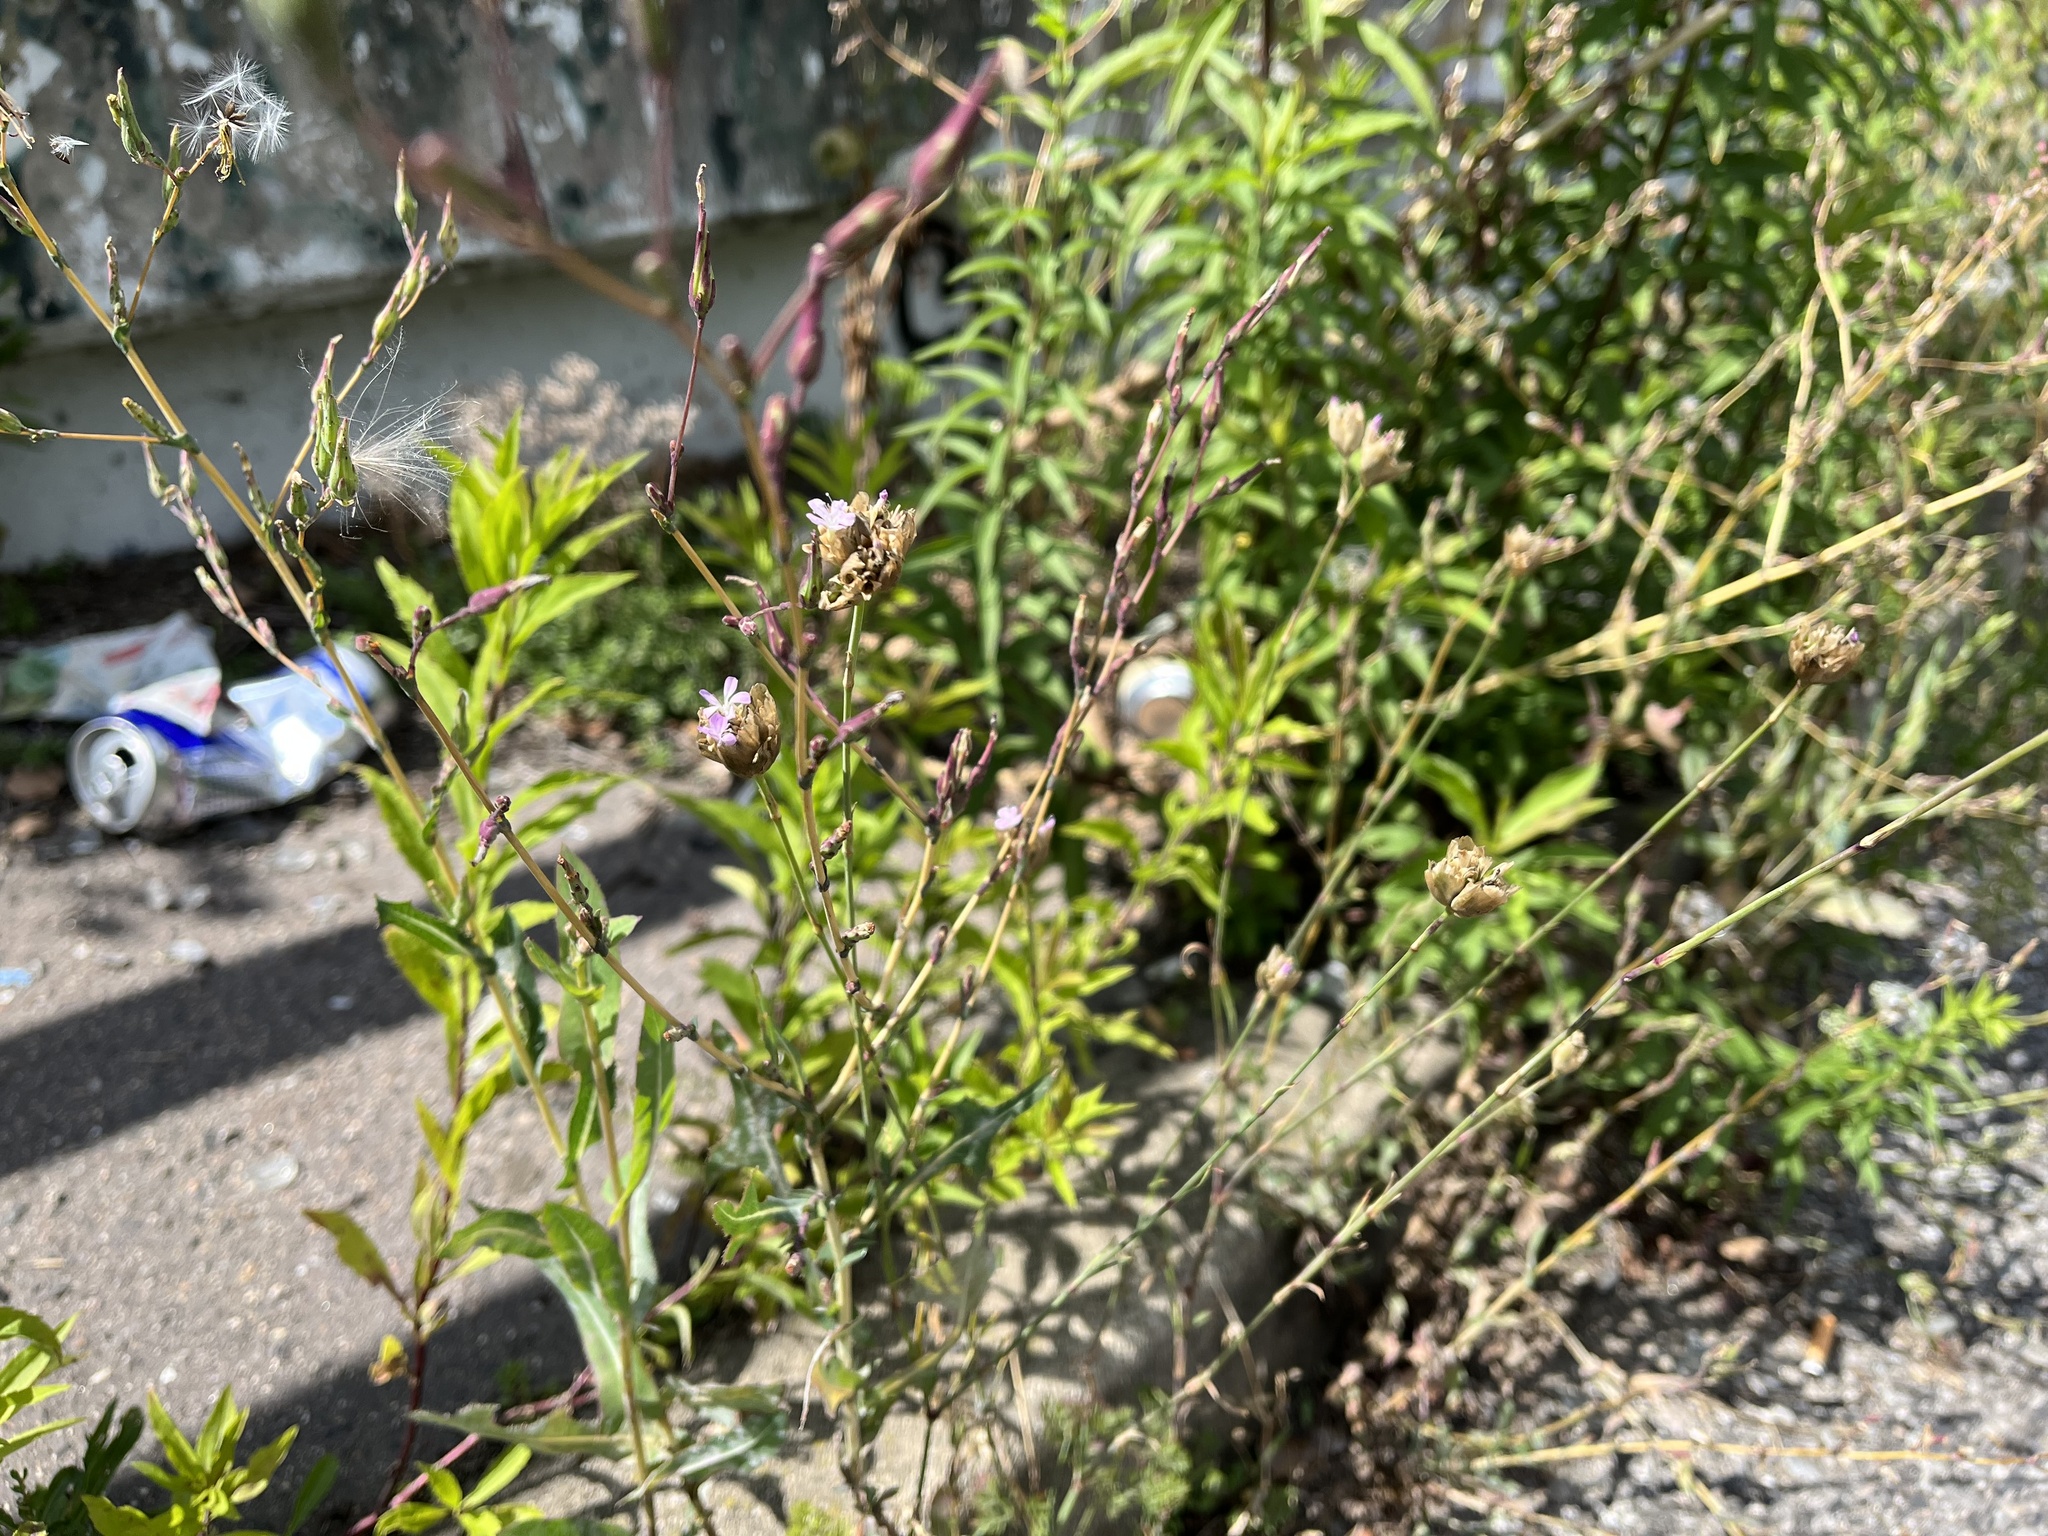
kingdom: Plantae
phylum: Tracheophyta
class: Magnoliopsida
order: Caryophyllales
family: Caryophyllaceae
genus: Petrorhagia
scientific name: Petrorhagia prolifera
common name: Proliferous pink
